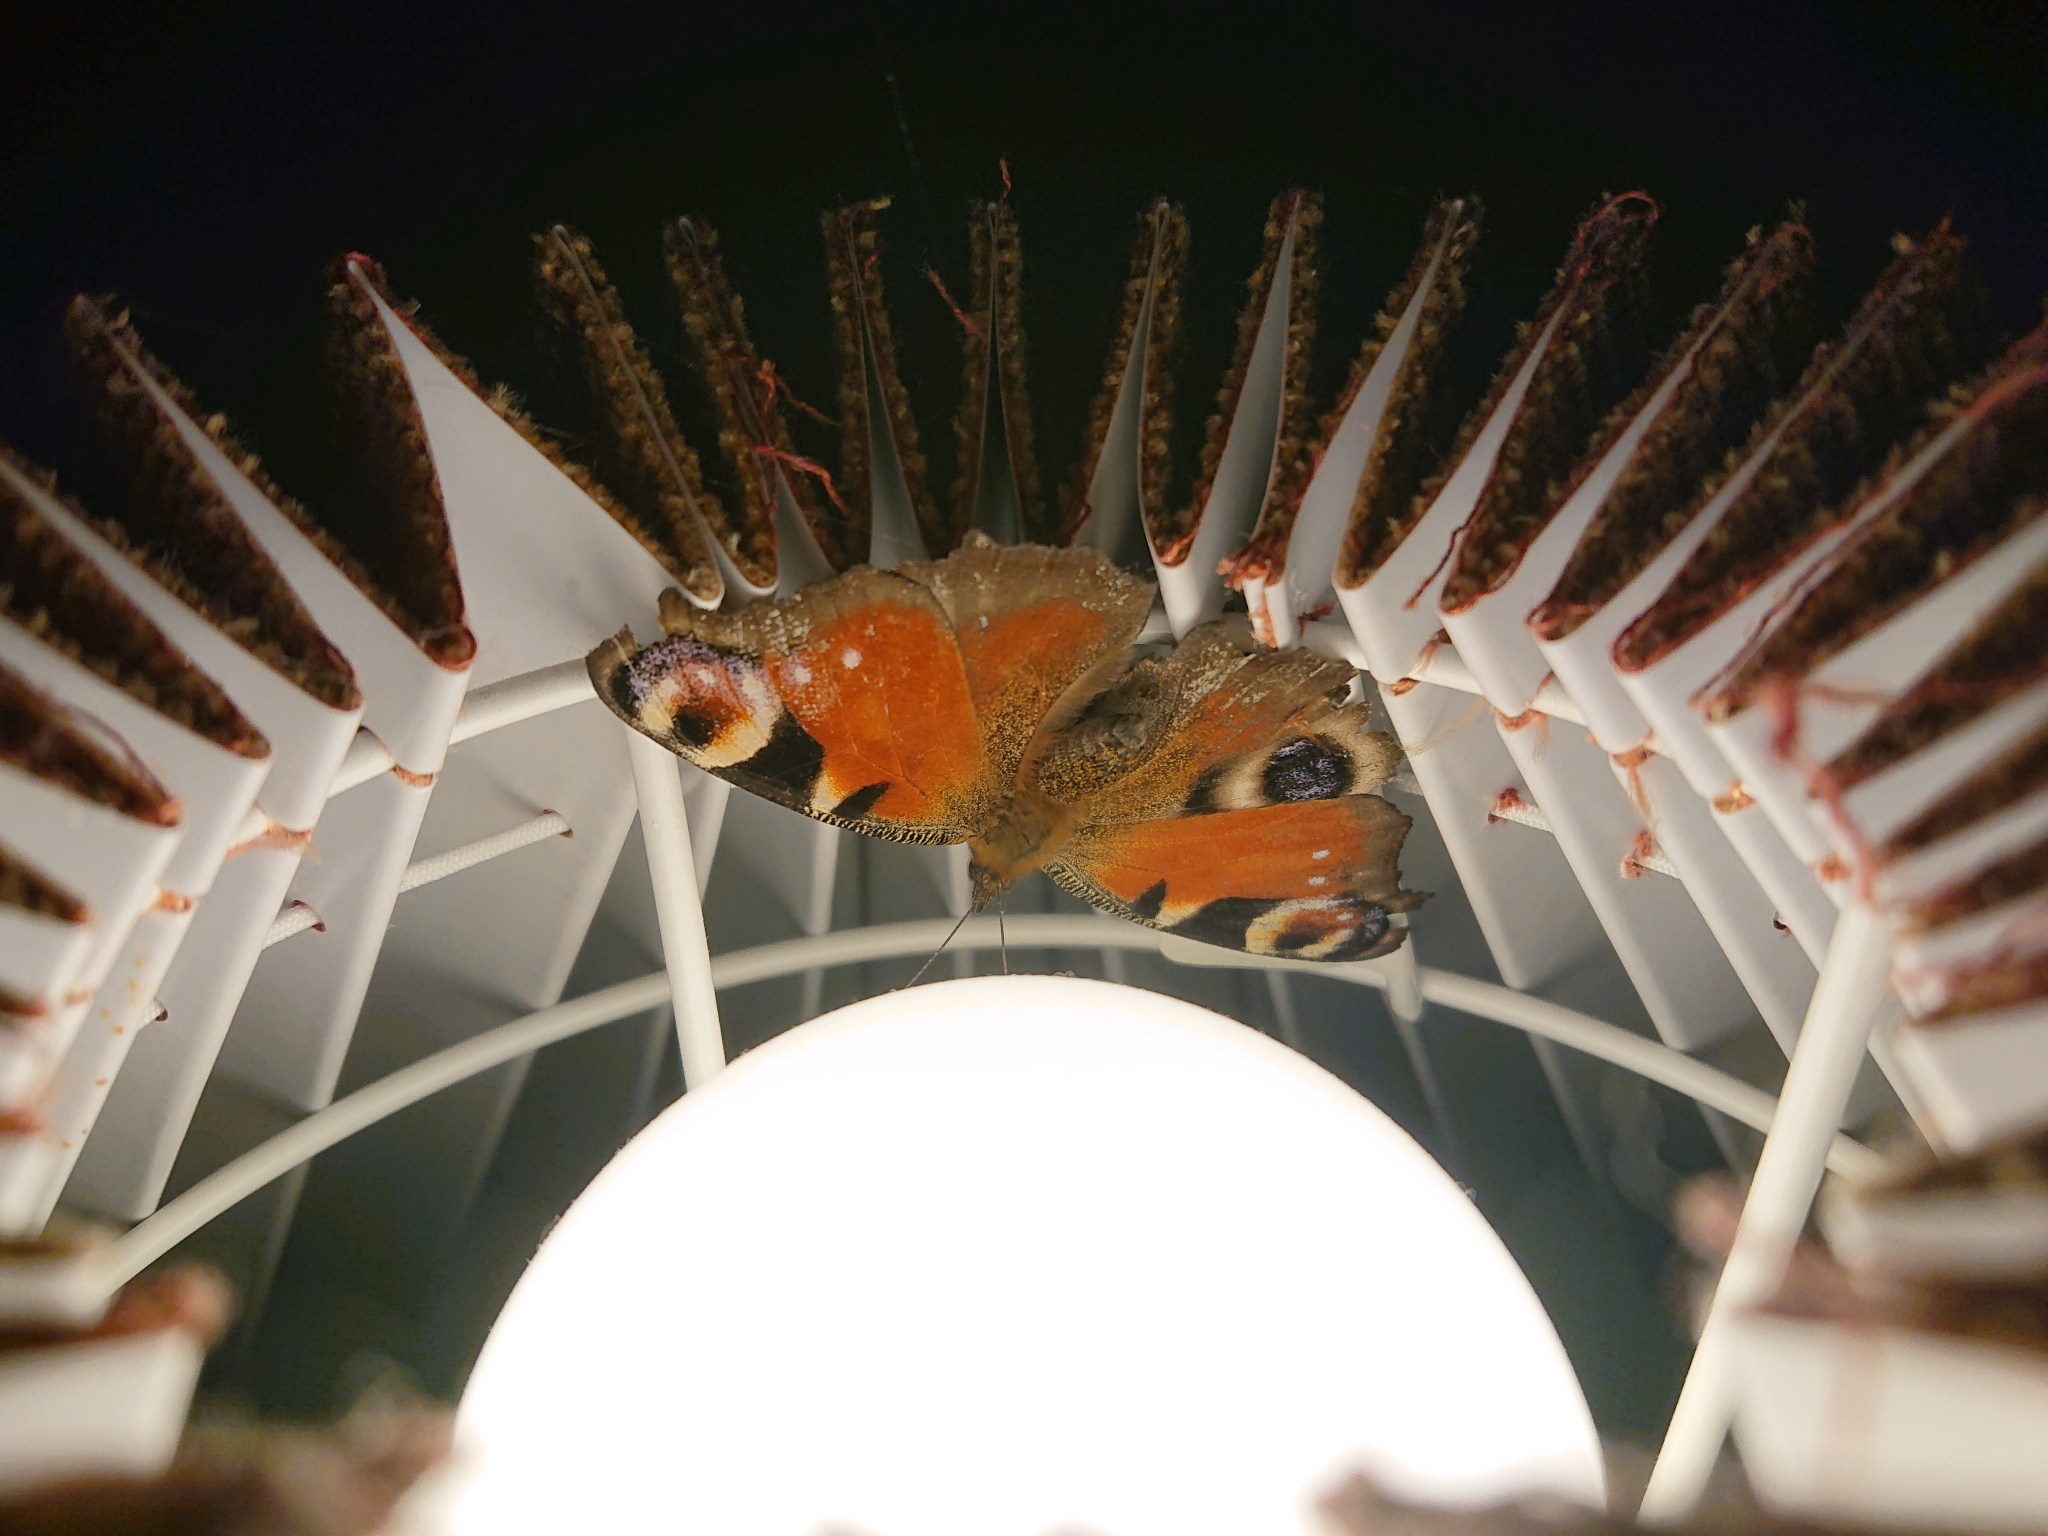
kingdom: Animalia
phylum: Arthropoda
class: Insecta
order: Lepidoptera
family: Nymphalidae
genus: Aglais
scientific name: Aglais io
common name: Peacock
